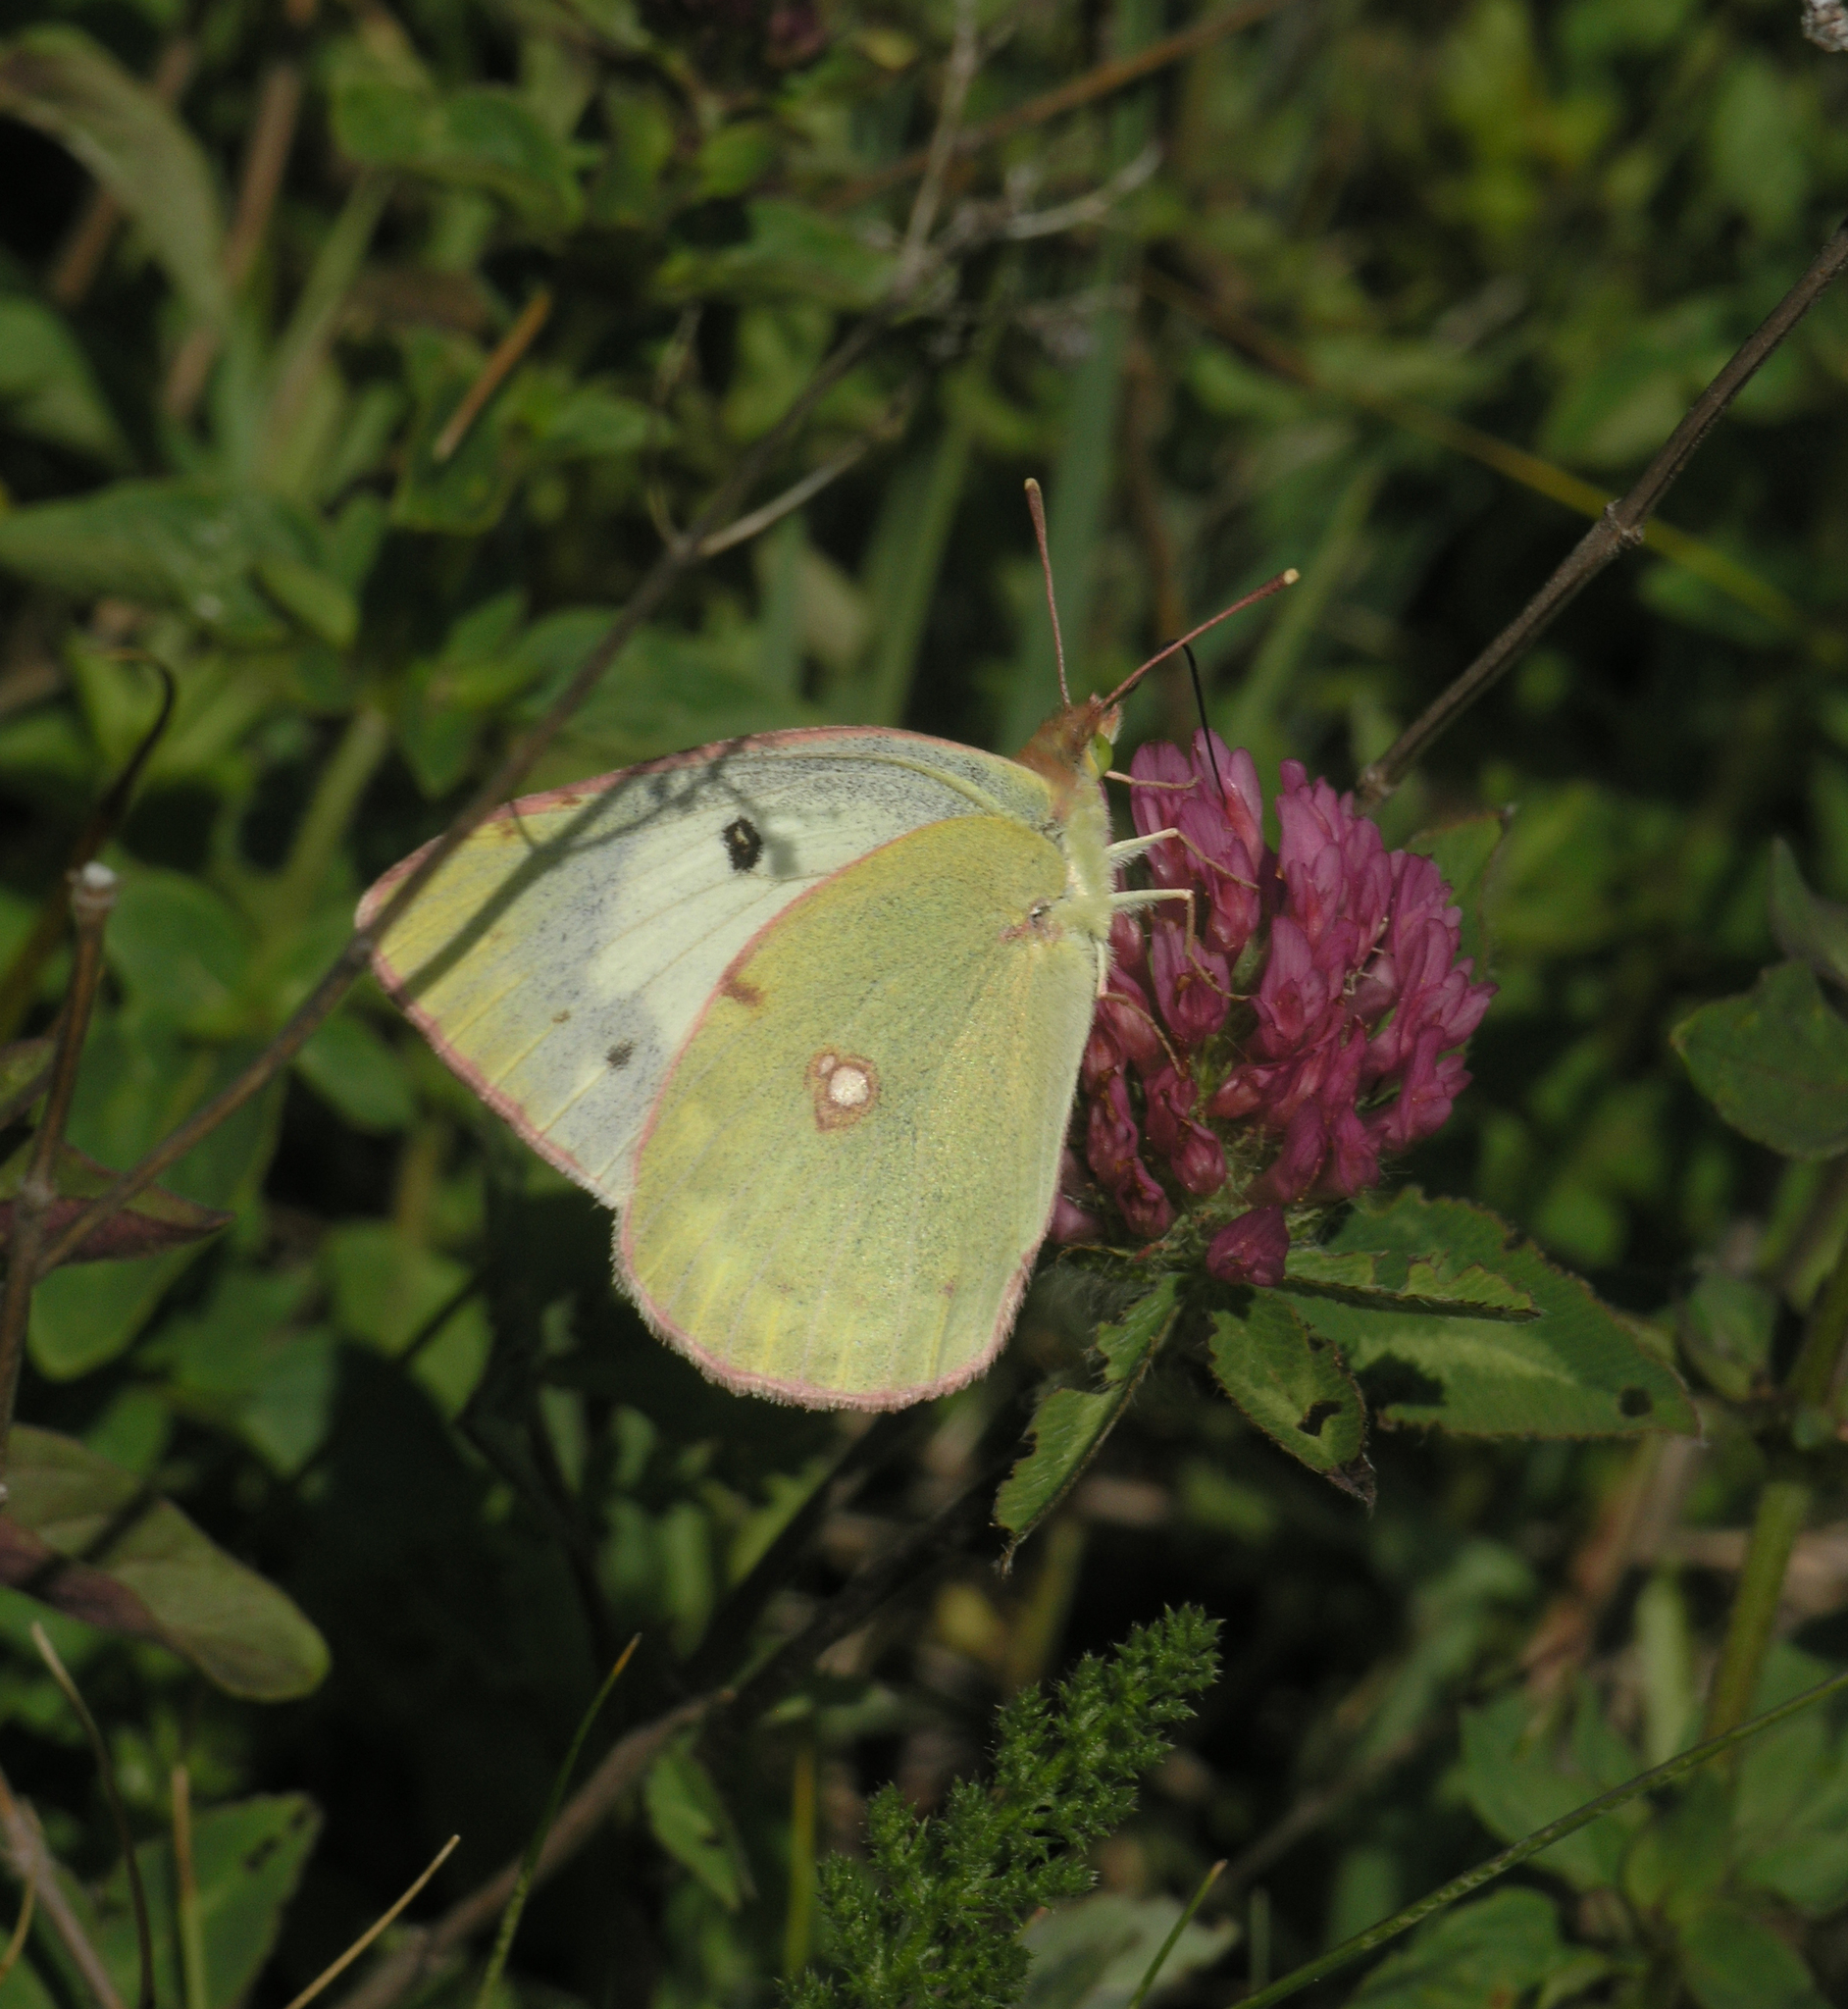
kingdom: Plantae
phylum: Tracheophyta
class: Magnoliopsida
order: Fabales
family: Fabaceae
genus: Trifolium
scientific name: Trifolium pratense
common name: Red clover
